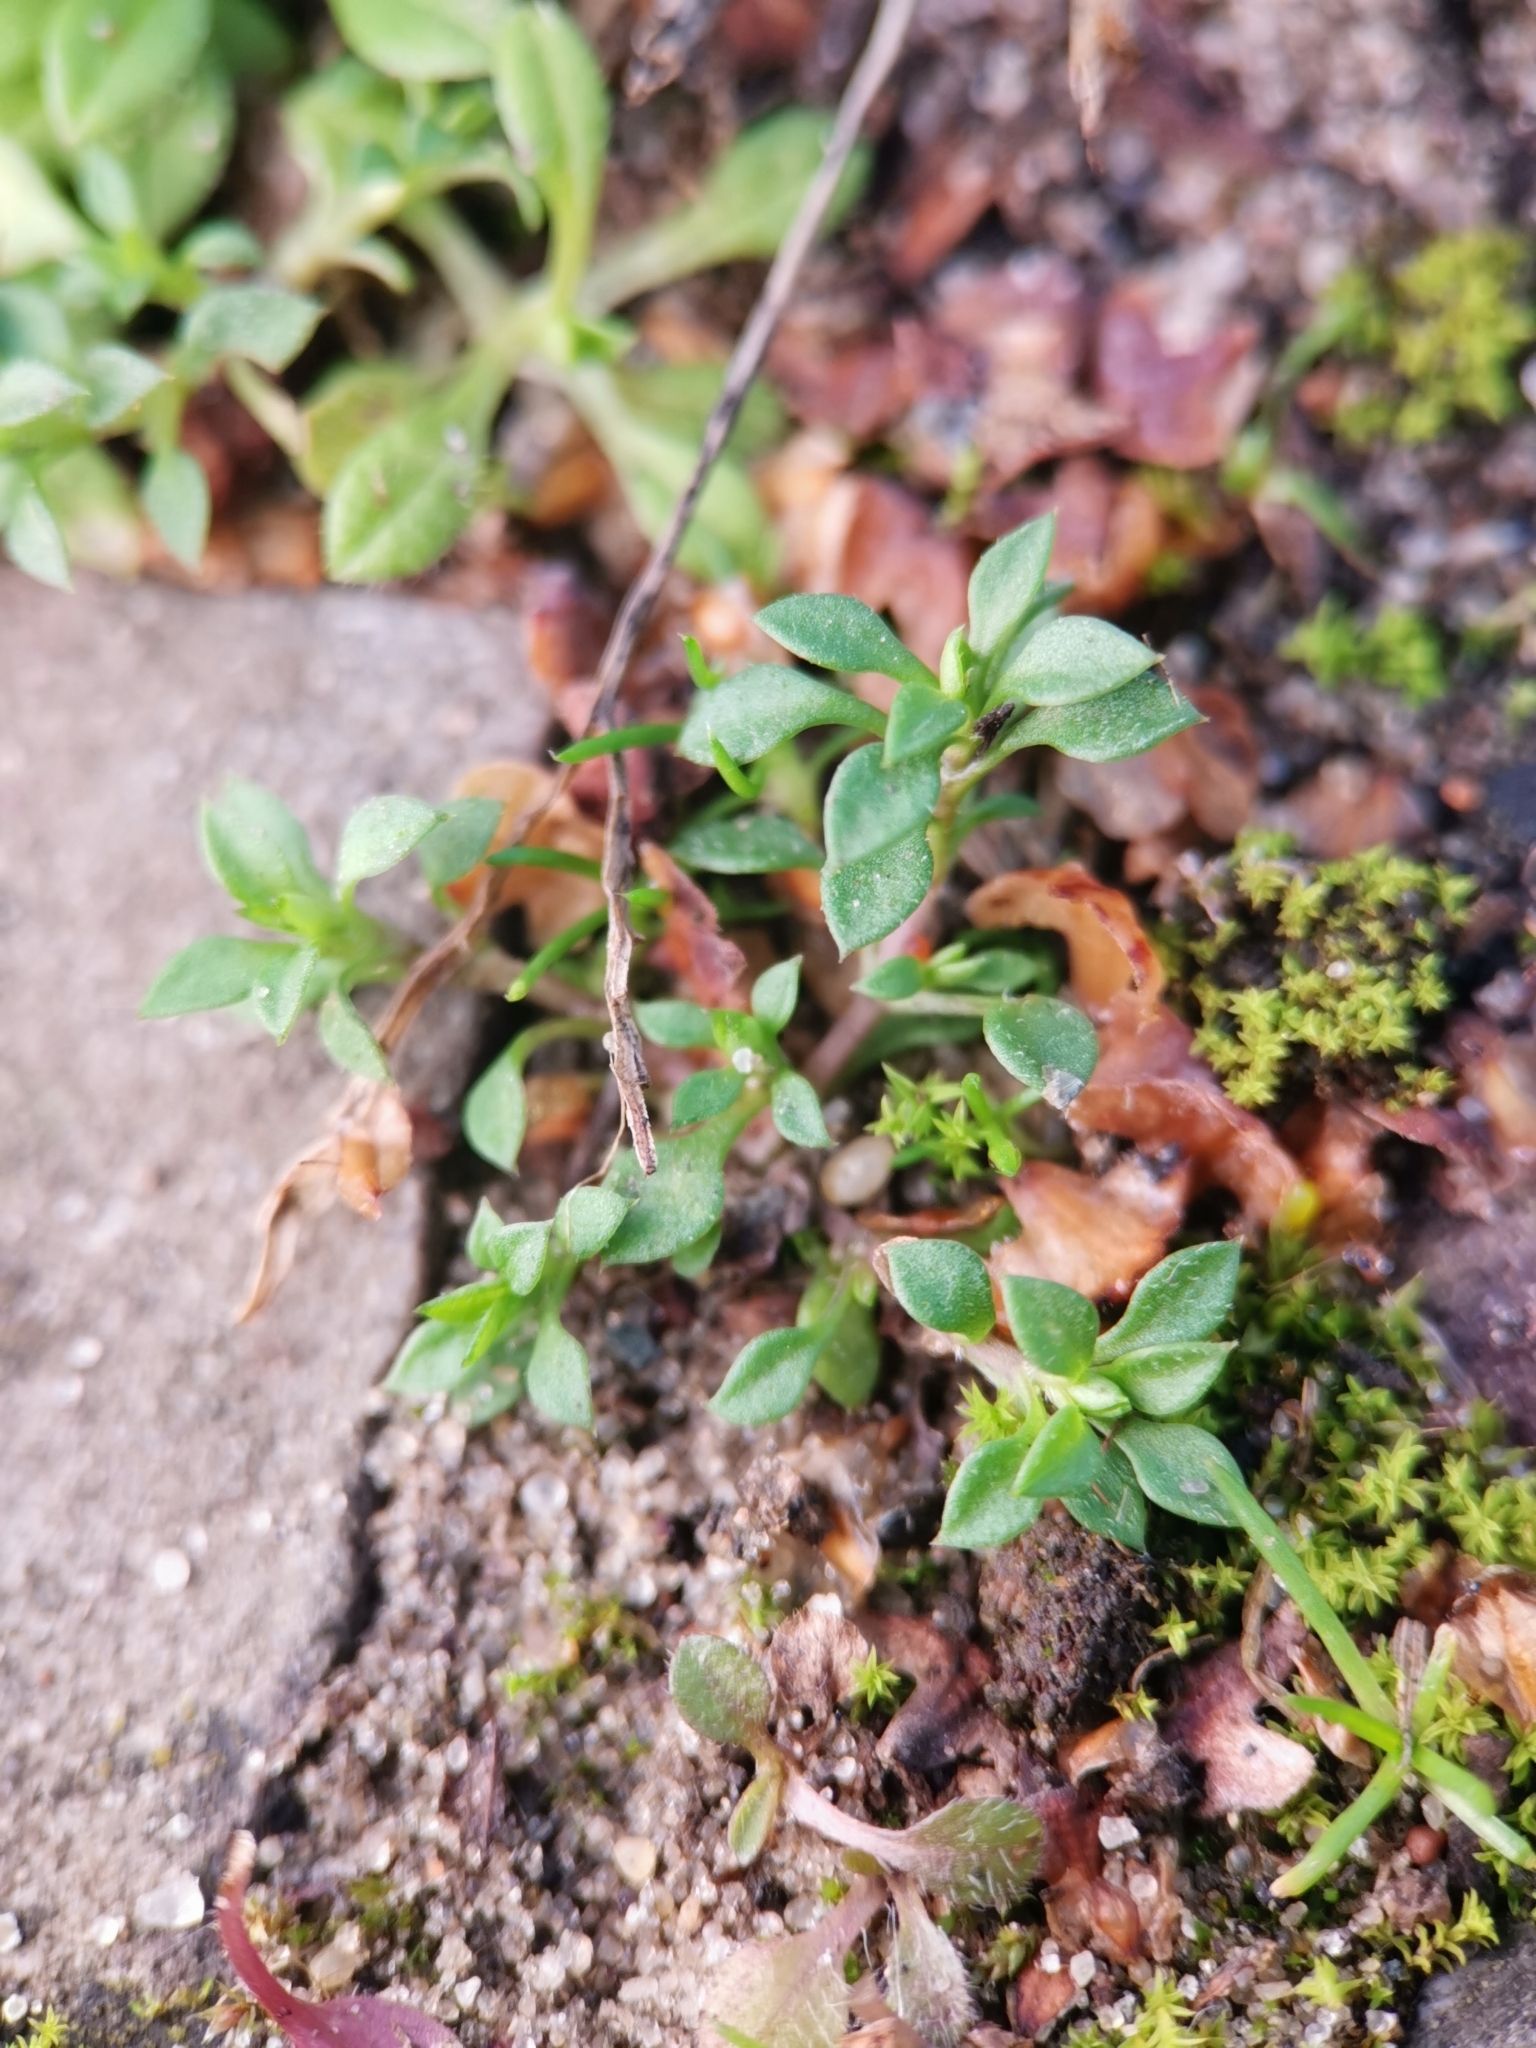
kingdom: Plantae
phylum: Tracheophyta
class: Magnoliopsida
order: Caryophyllales
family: Caryophyllaceae
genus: Arenaria
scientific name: Arenaria serpyllifolia
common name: Thyme-leaved sandwort
